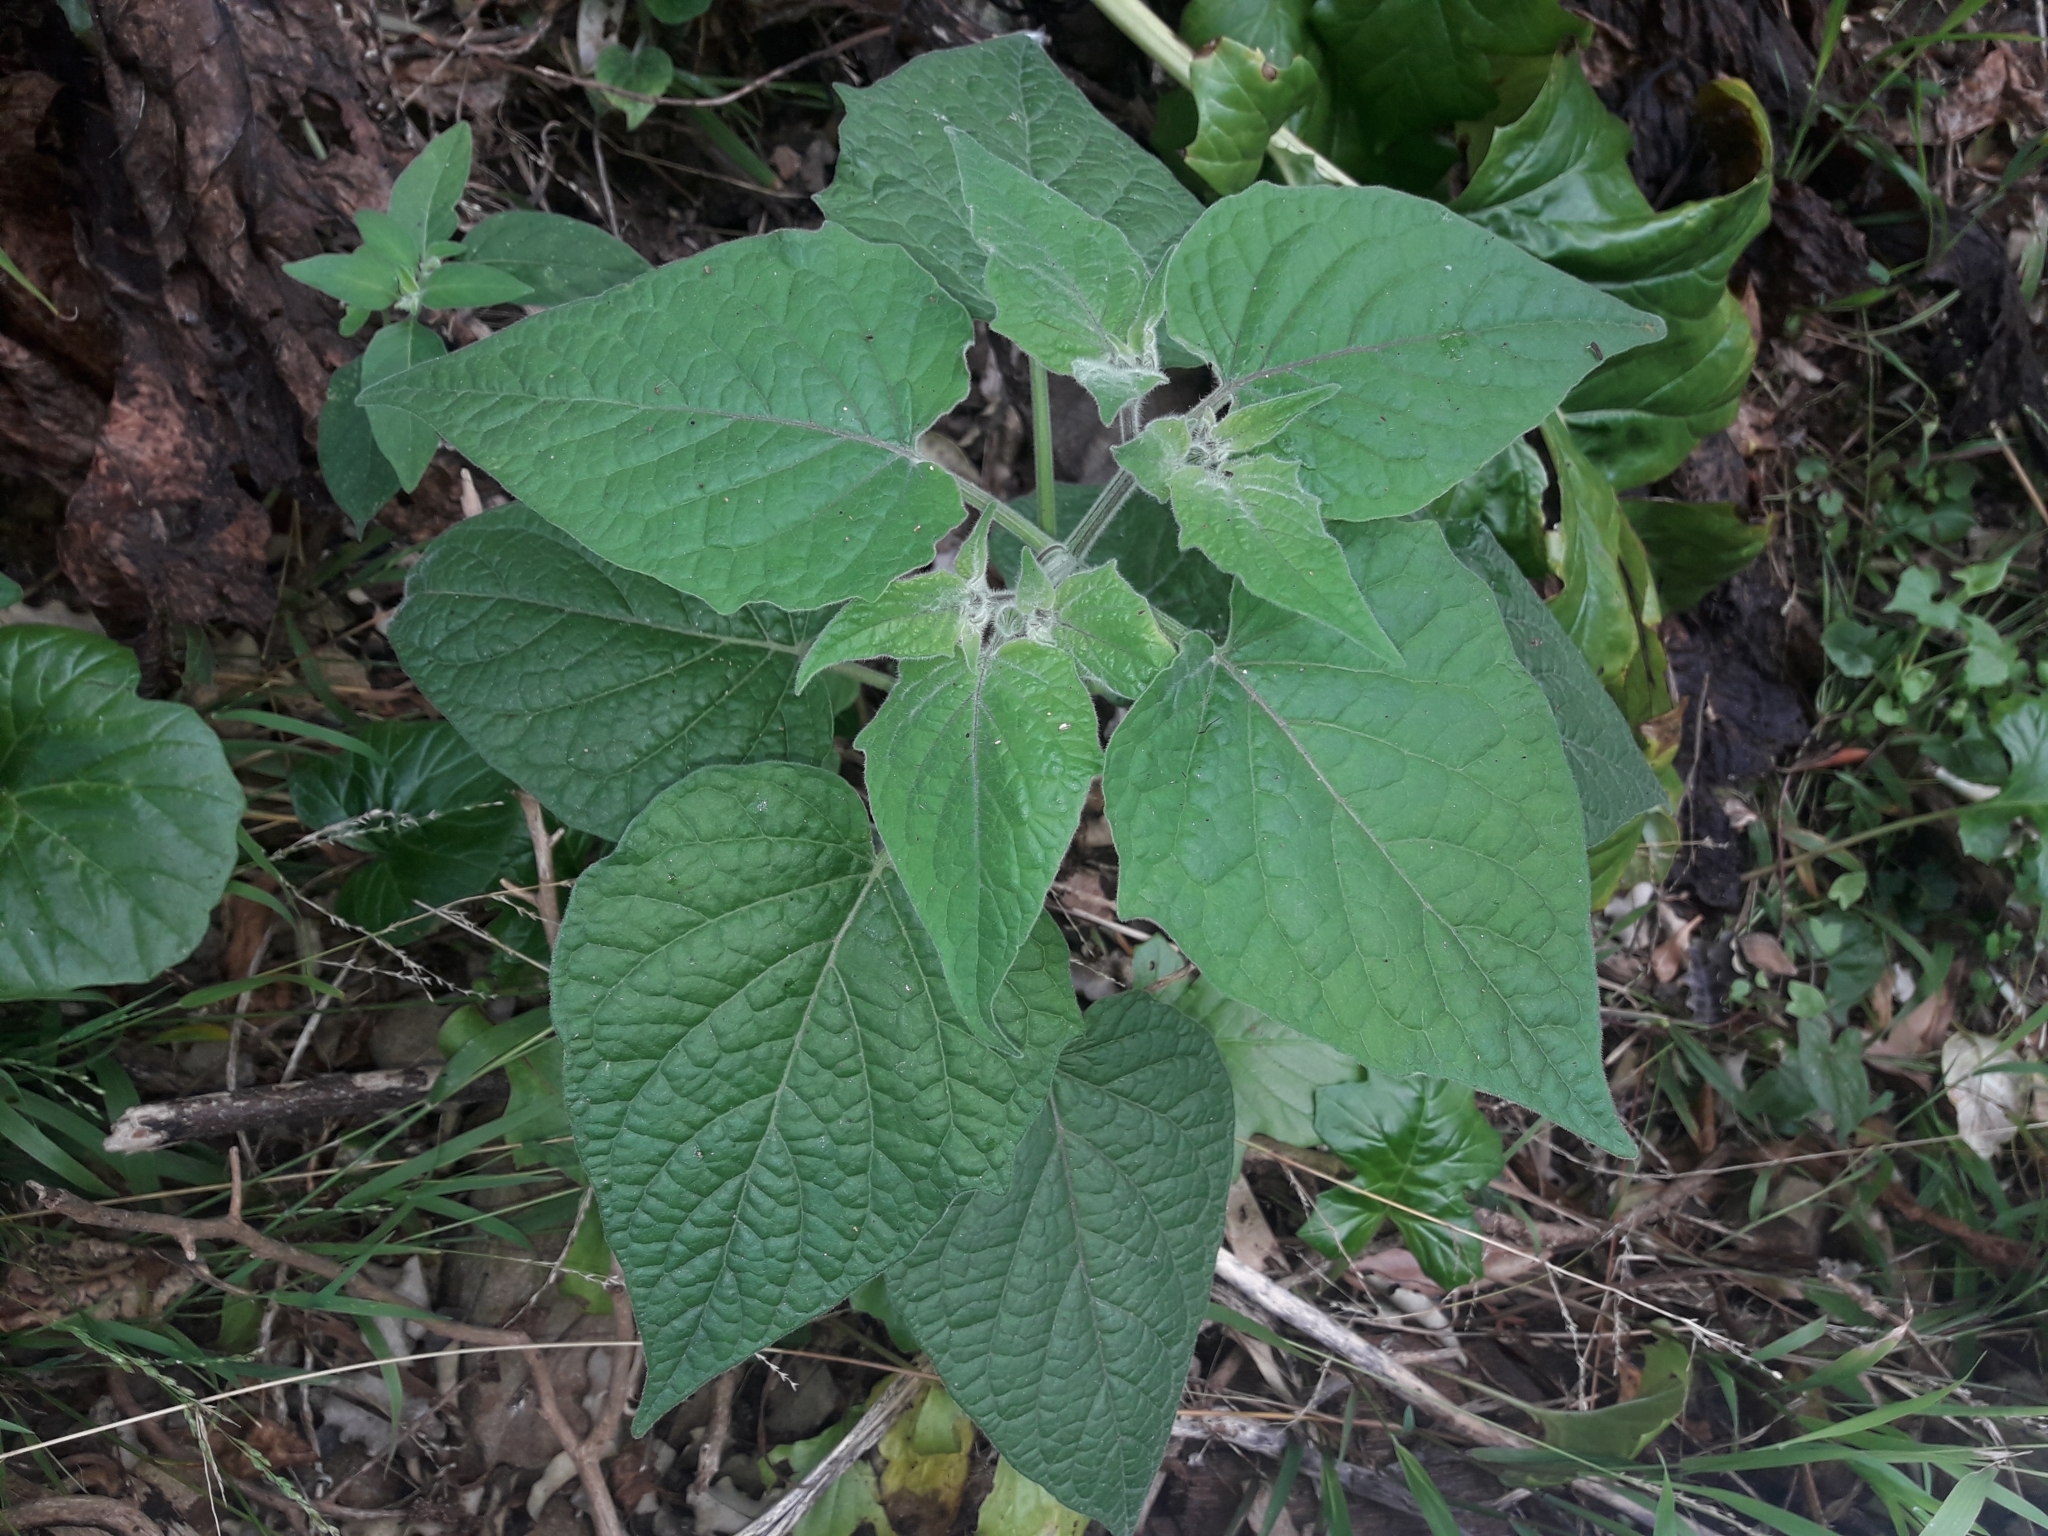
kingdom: Plantae
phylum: Tracheophyta
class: Magnoliopsida
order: Solanales
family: Solanaceae
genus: Physalis
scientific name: Physalis peruviana
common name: Cape-gooseberry
